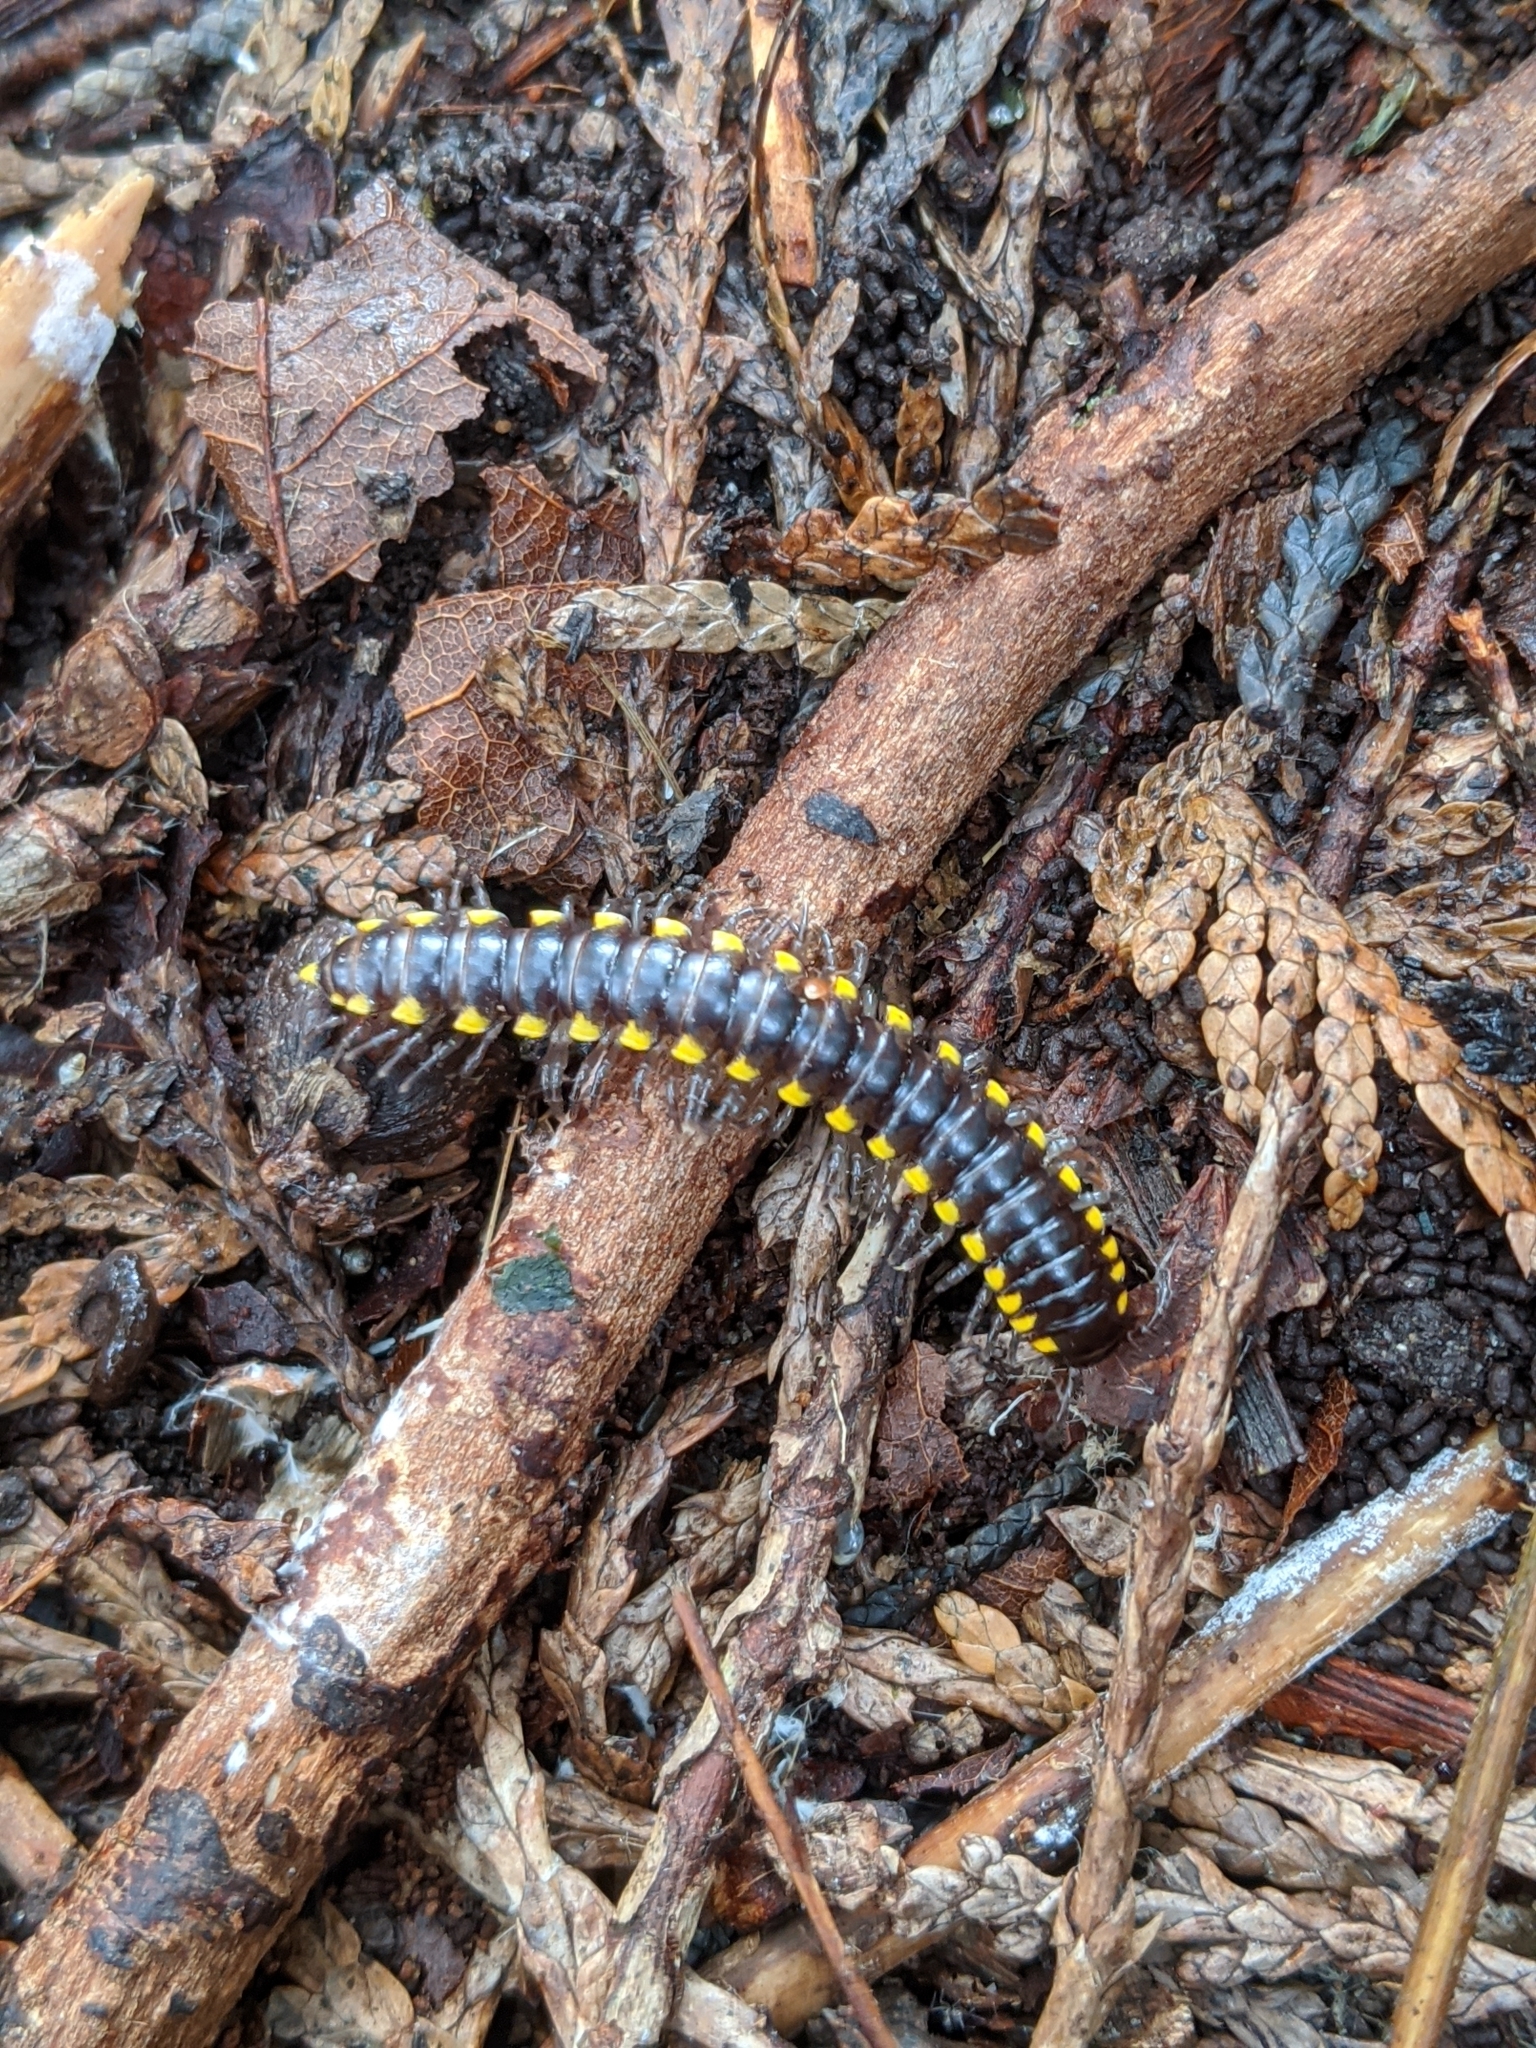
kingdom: Animalia
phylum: Arthropoda
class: Diplopoda
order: Polydesmida
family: Xystodesmidae
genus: Harpaphe
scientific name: Harpaphe haydeniana
